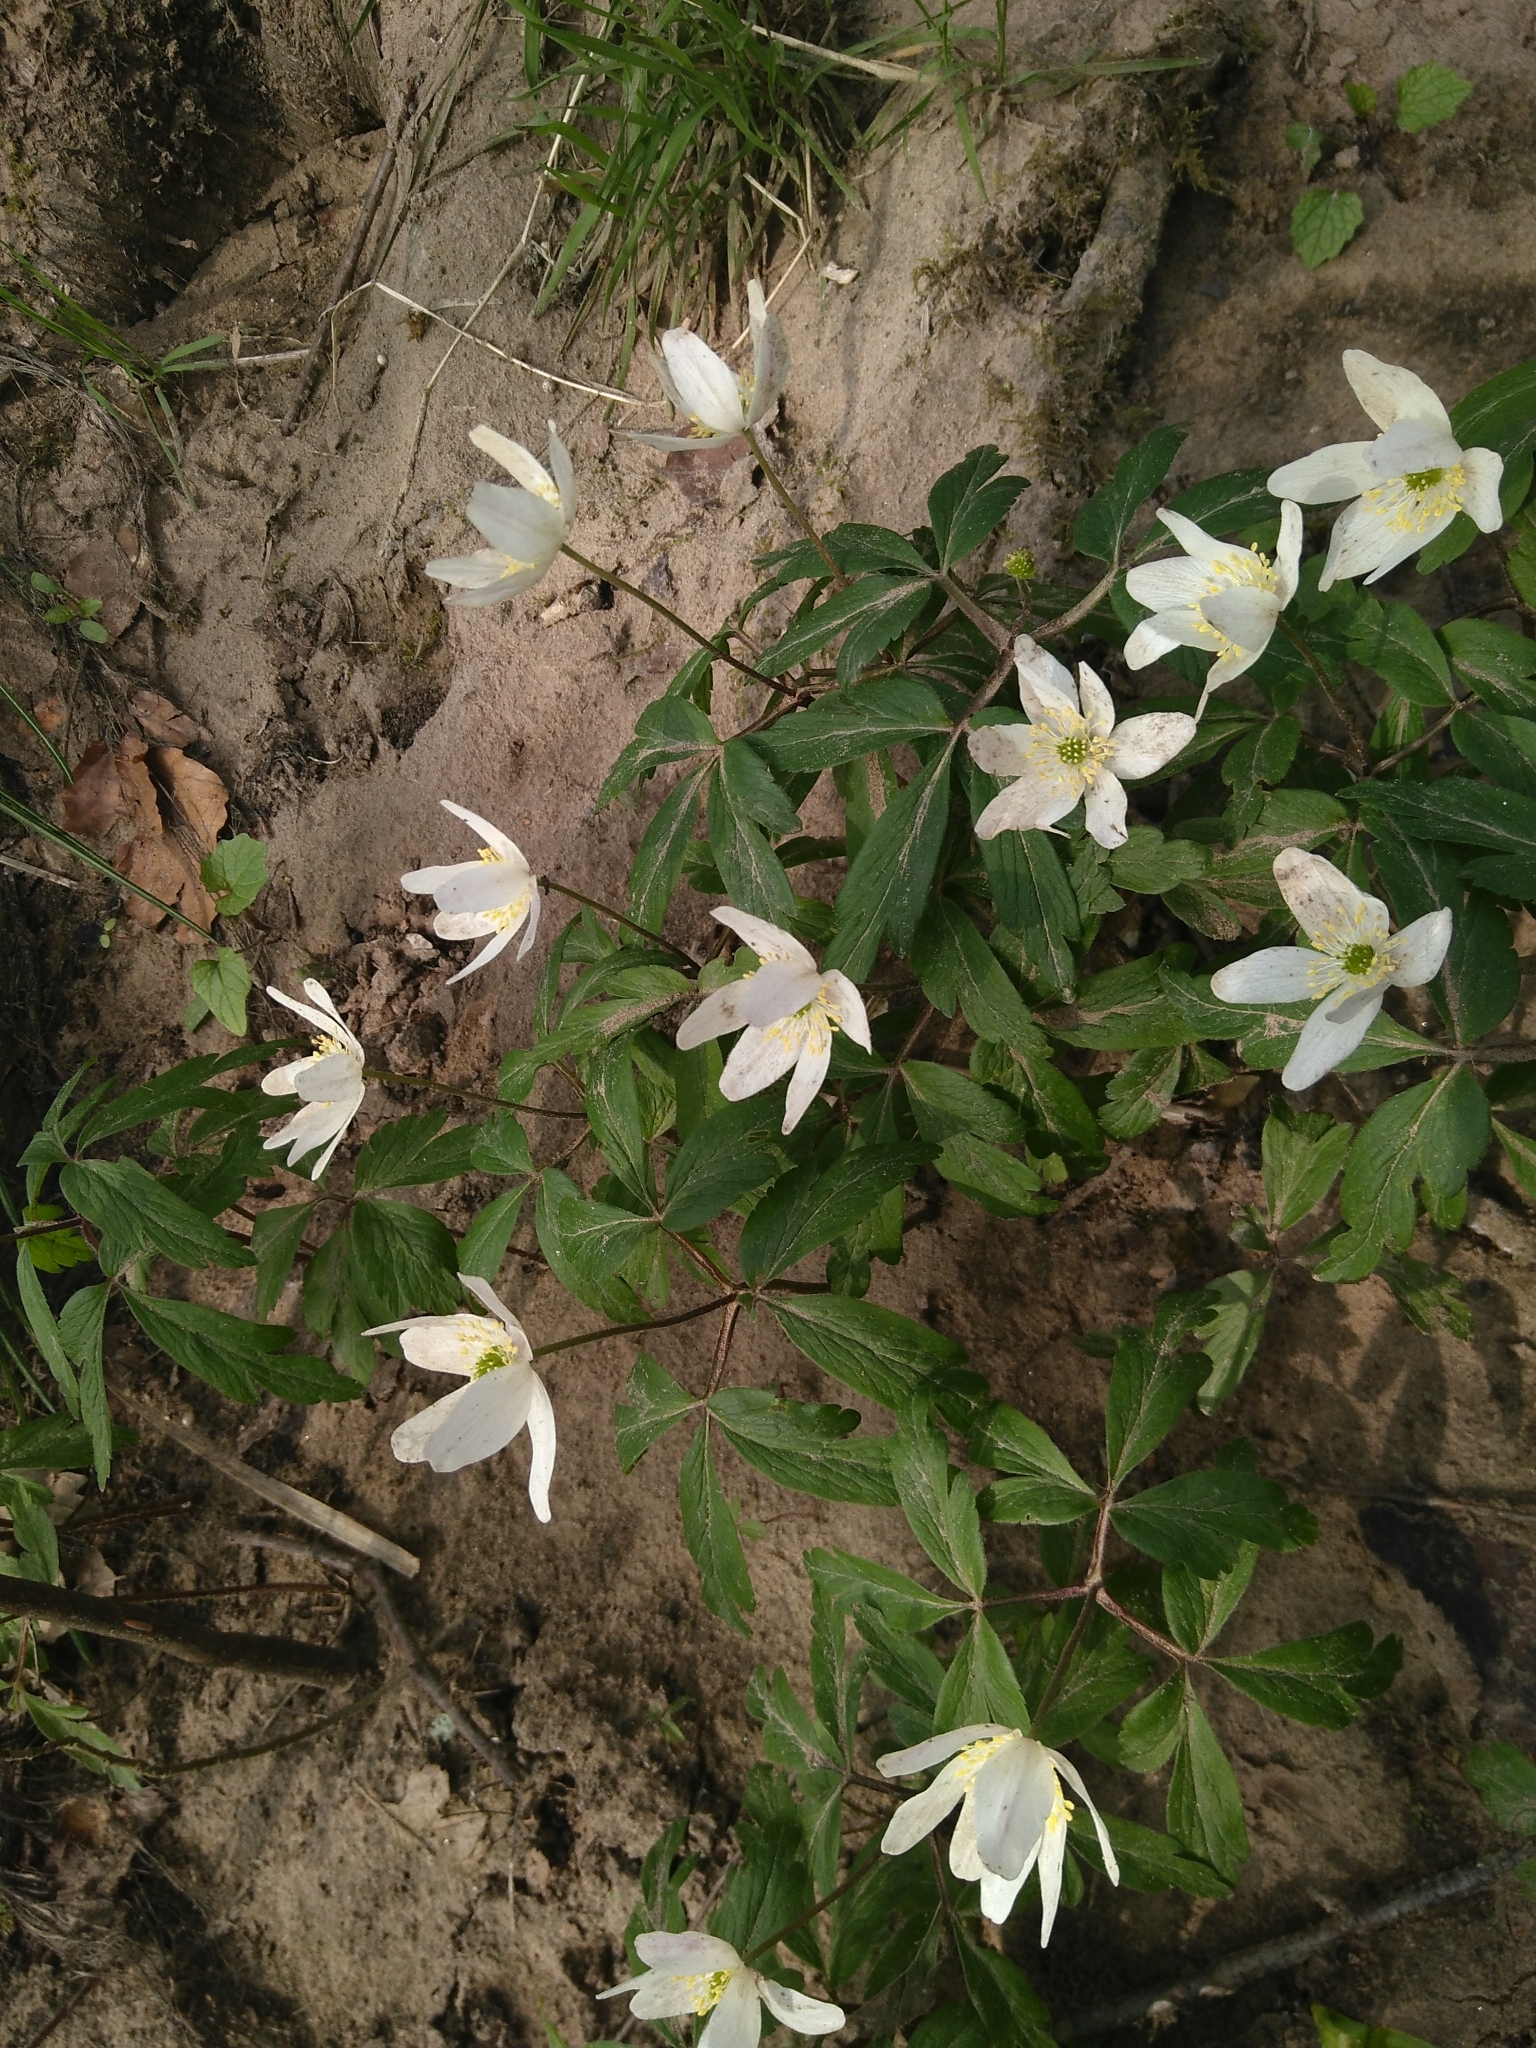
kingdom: Plantae
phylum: Tracheophyta
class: Magnoliopsida
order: Ranunculales
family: Ranunculaceae
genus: Anemone
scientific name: Anemone nemorosa
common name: Wood anemone
